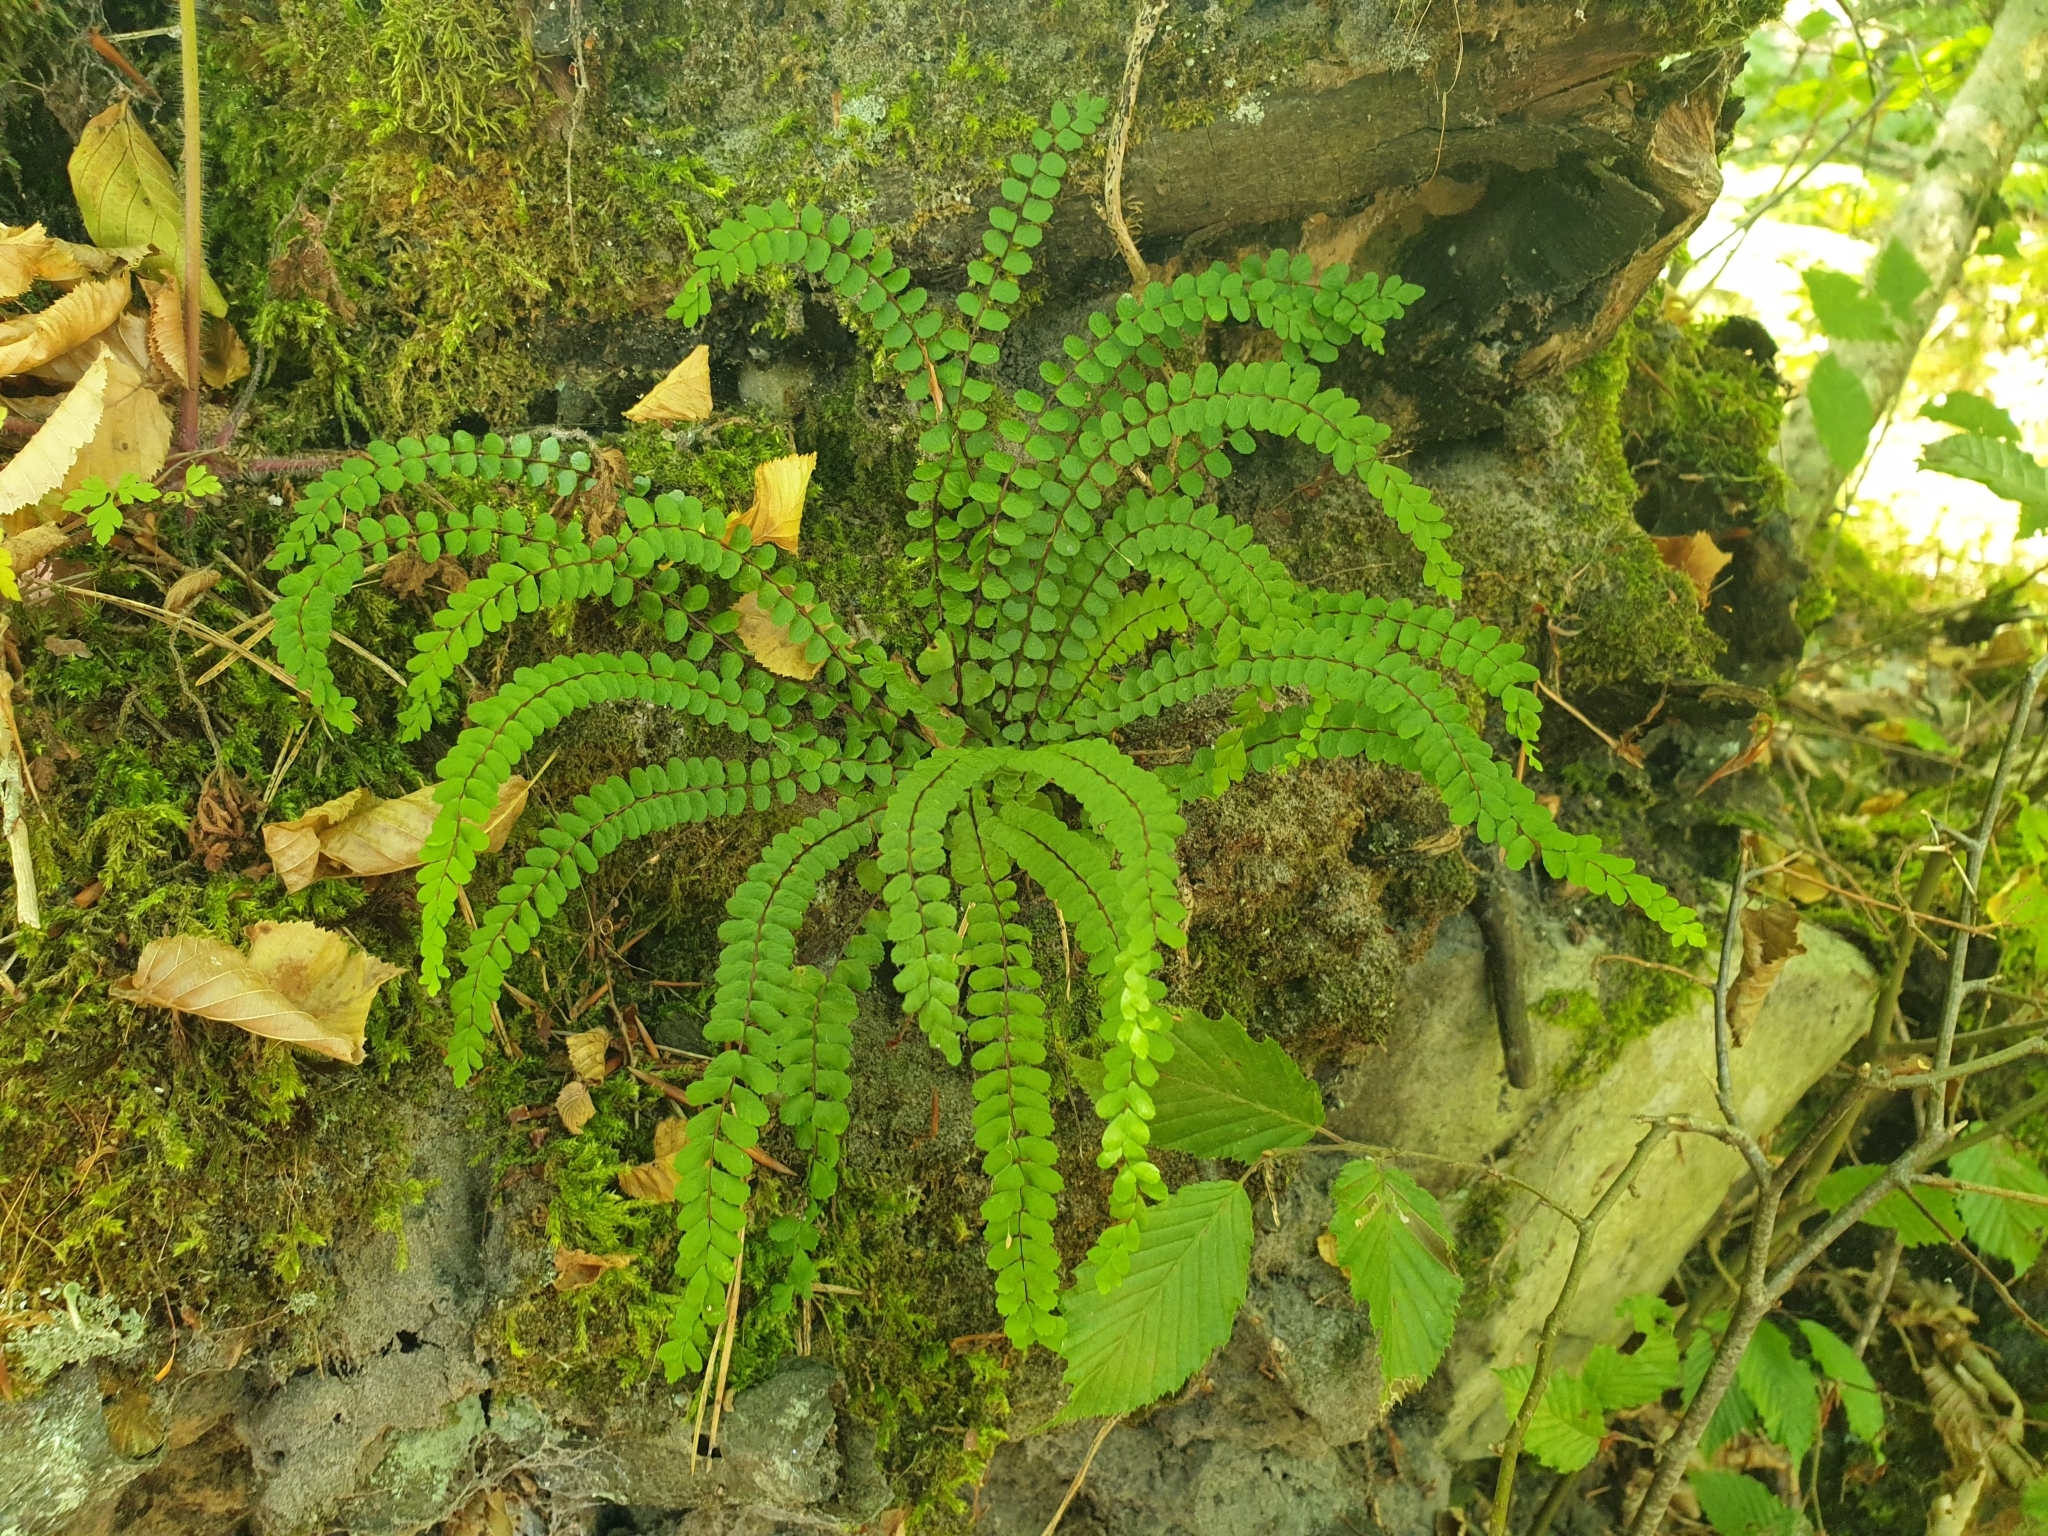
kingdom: Plantae
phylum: Tracheophyta
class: Polypodiopsida
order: Polypodiales
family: Aspleniaceae
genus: Asplenium
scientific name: Asplenium trichomanes
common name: Maidenhair spleenwort
